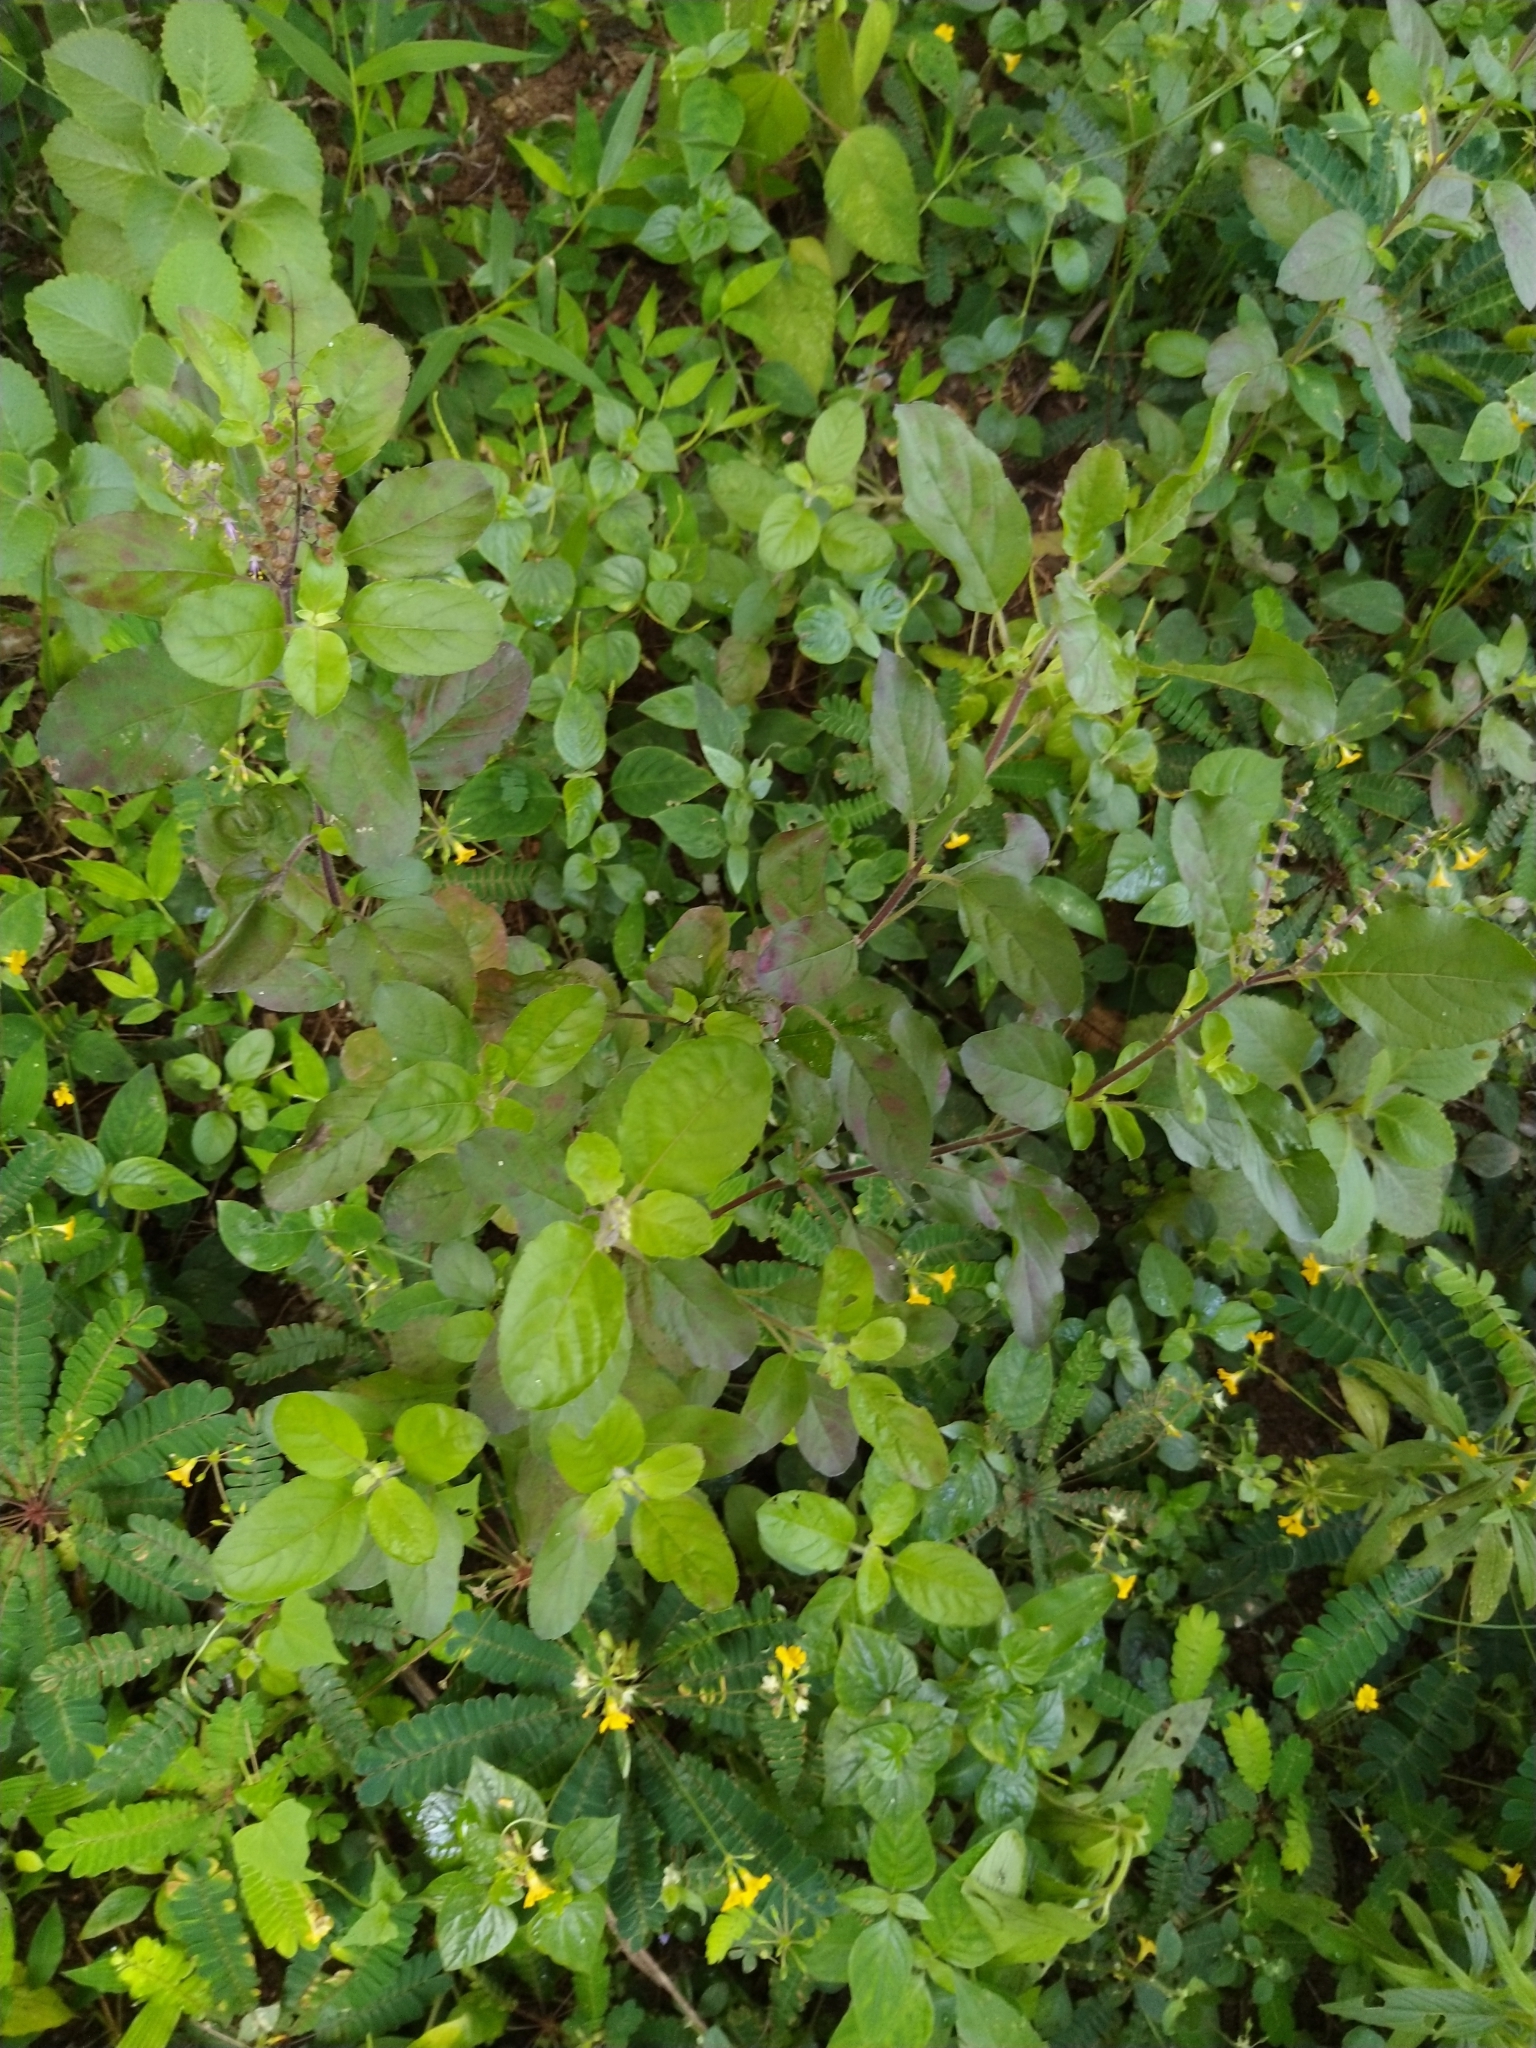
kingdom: Plantae
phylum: Tracheophyta
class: Magnoliopsida
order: Lamiales
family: Lamiaceae
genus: Ocimum
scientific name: Ocimum tenuiflorum
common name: Sacred basil
